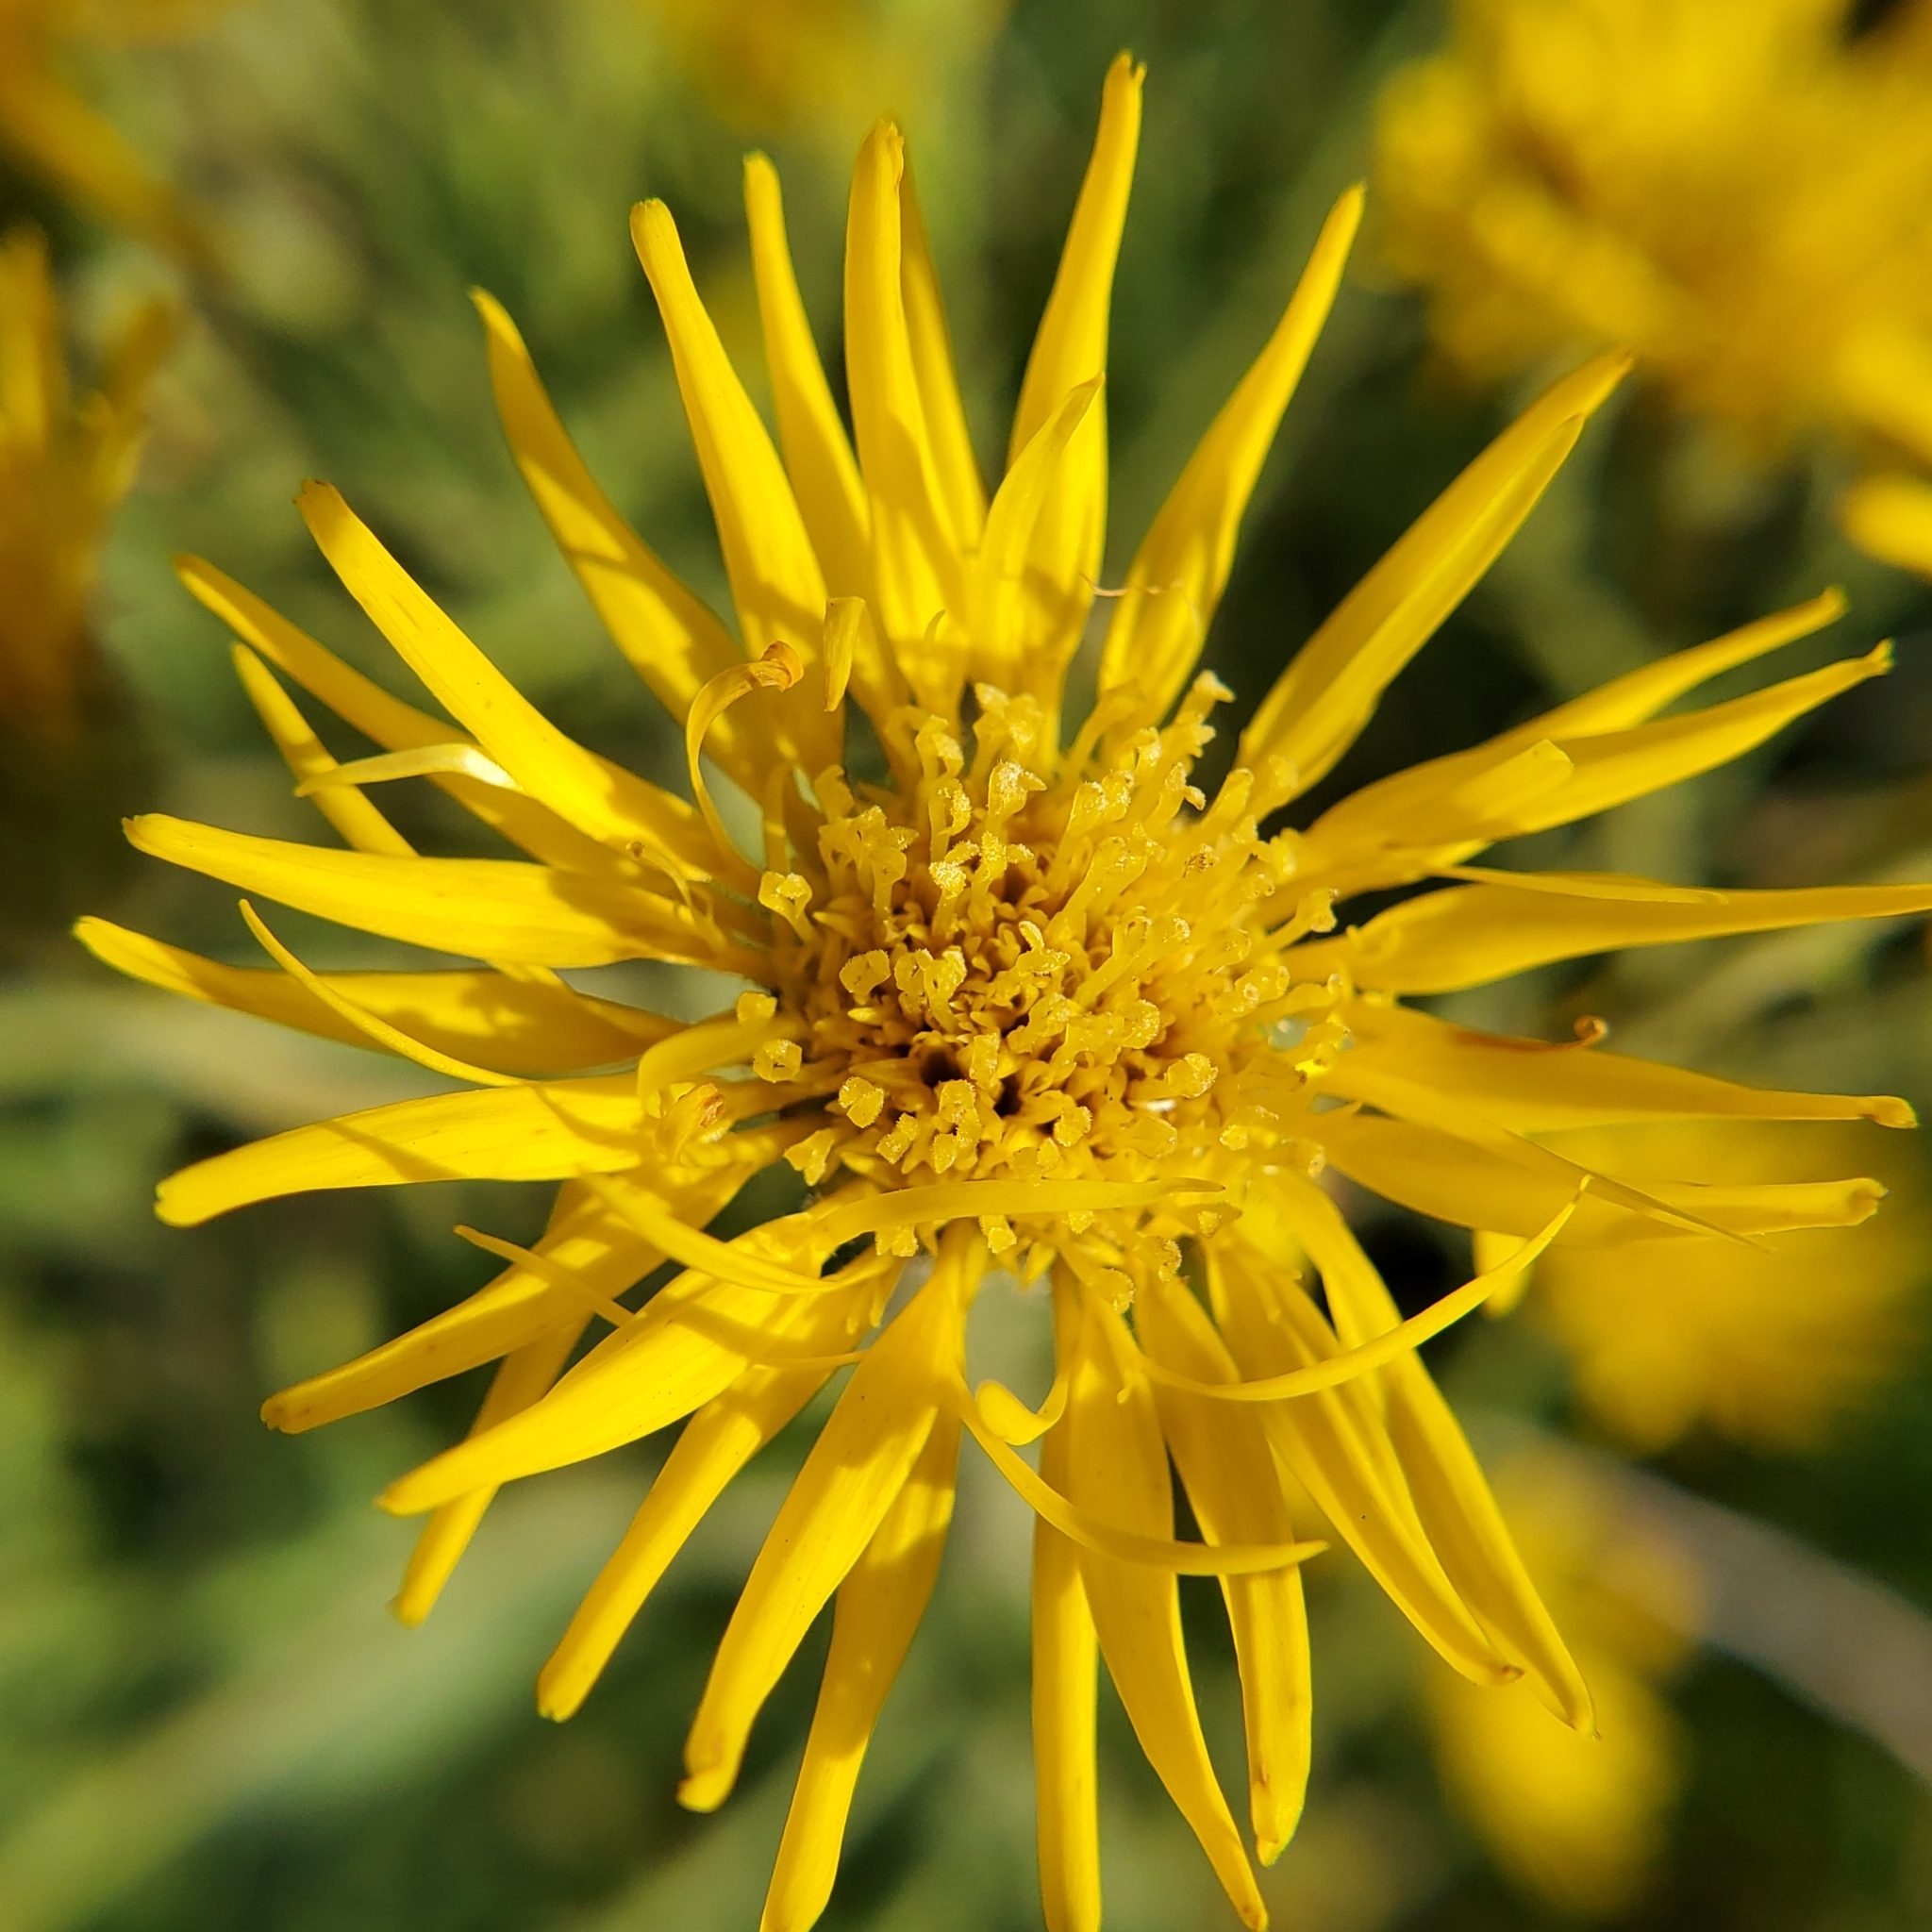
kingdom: Plantae
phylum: Tracheophyta
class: Magnoliopsida
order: Asterales
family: Asteraceae
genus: Heterotheca
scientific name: Heterotheca grandiflora
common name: Telegraphweed
